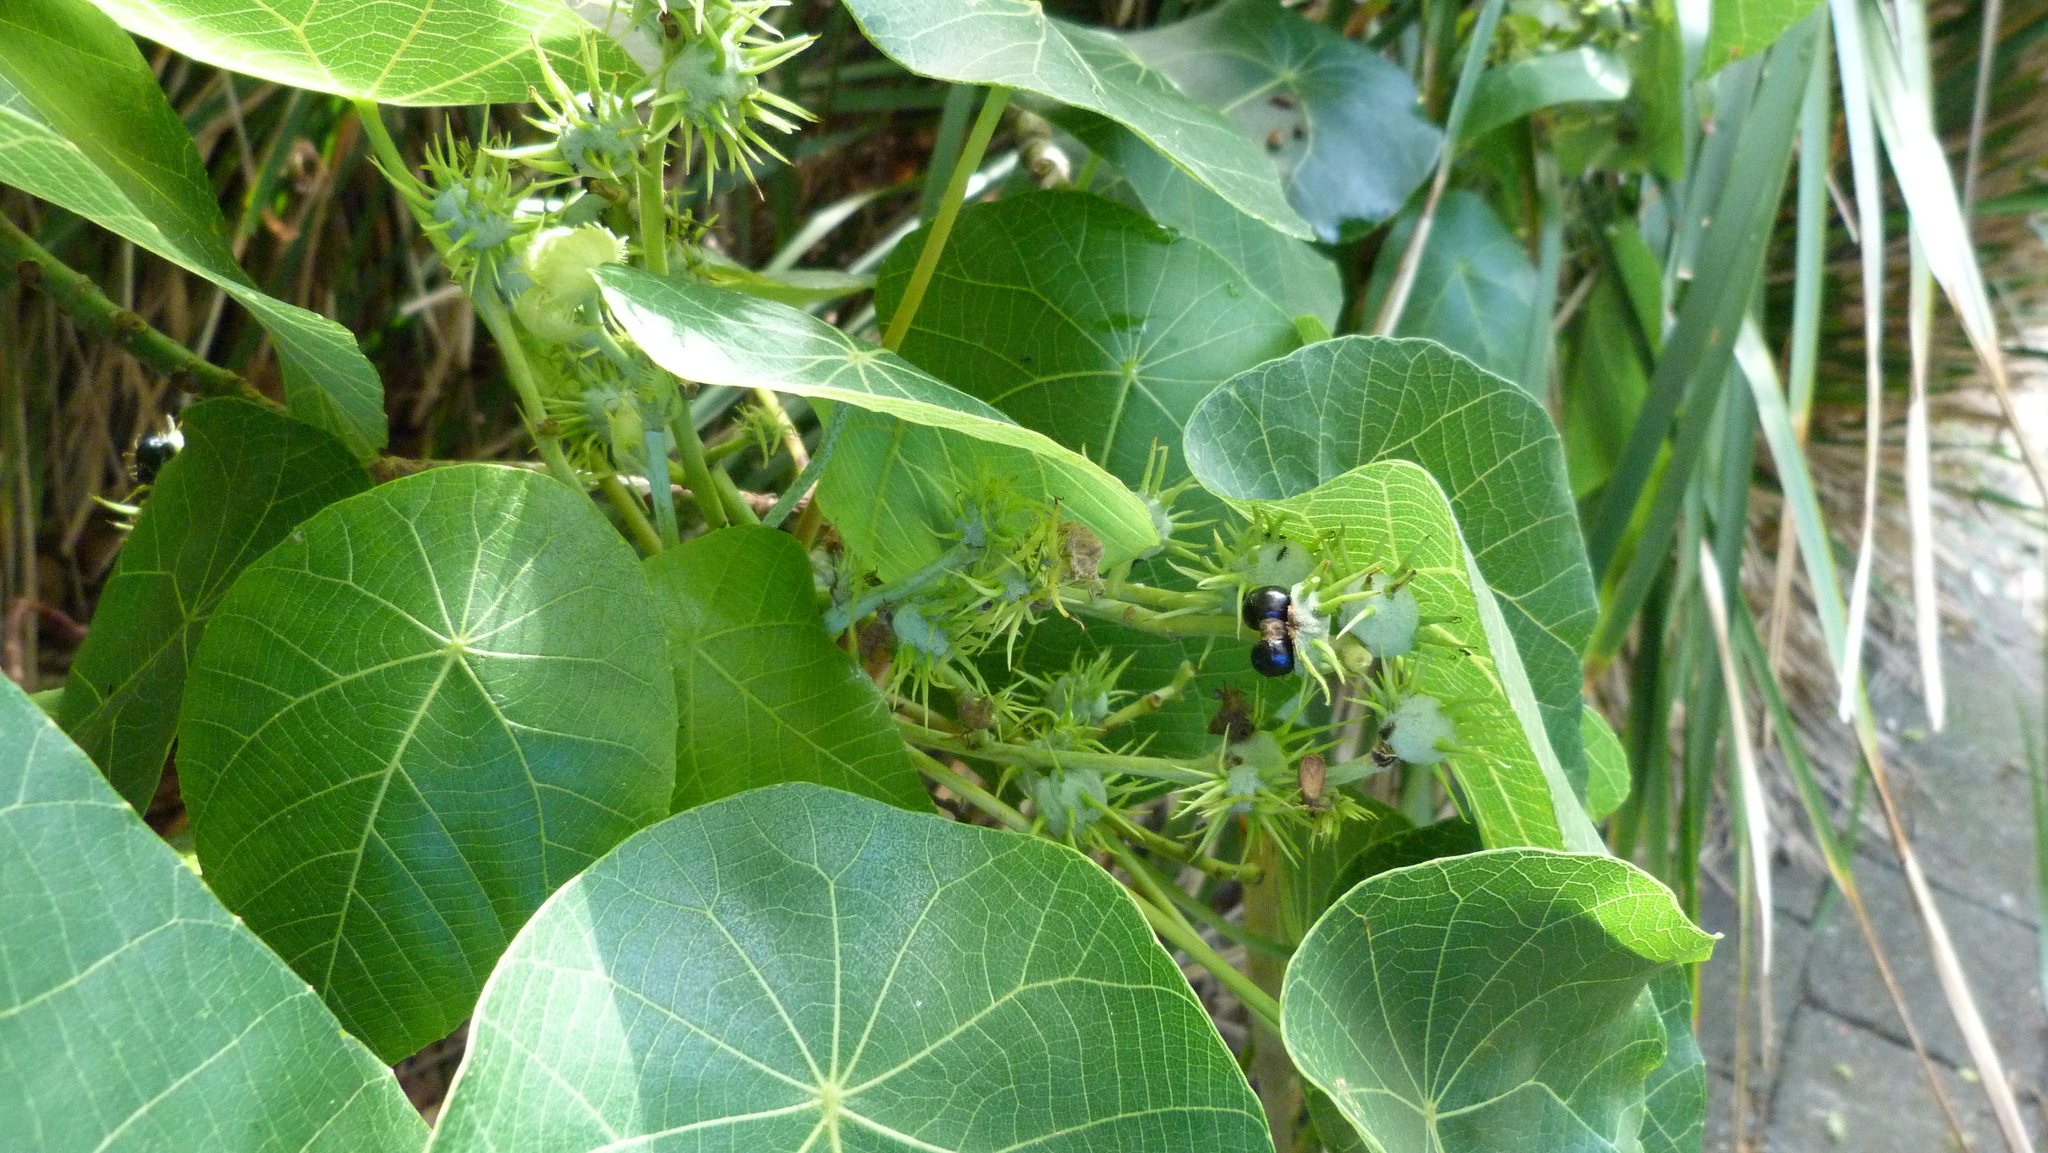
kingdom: Plantae
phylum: Tracheophyta
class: Magnoliopsida
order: Malpighiales
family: Euphorbiaceae
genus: Macaranga
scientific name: Macaranga tanarius
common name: Parasol leaf tree
